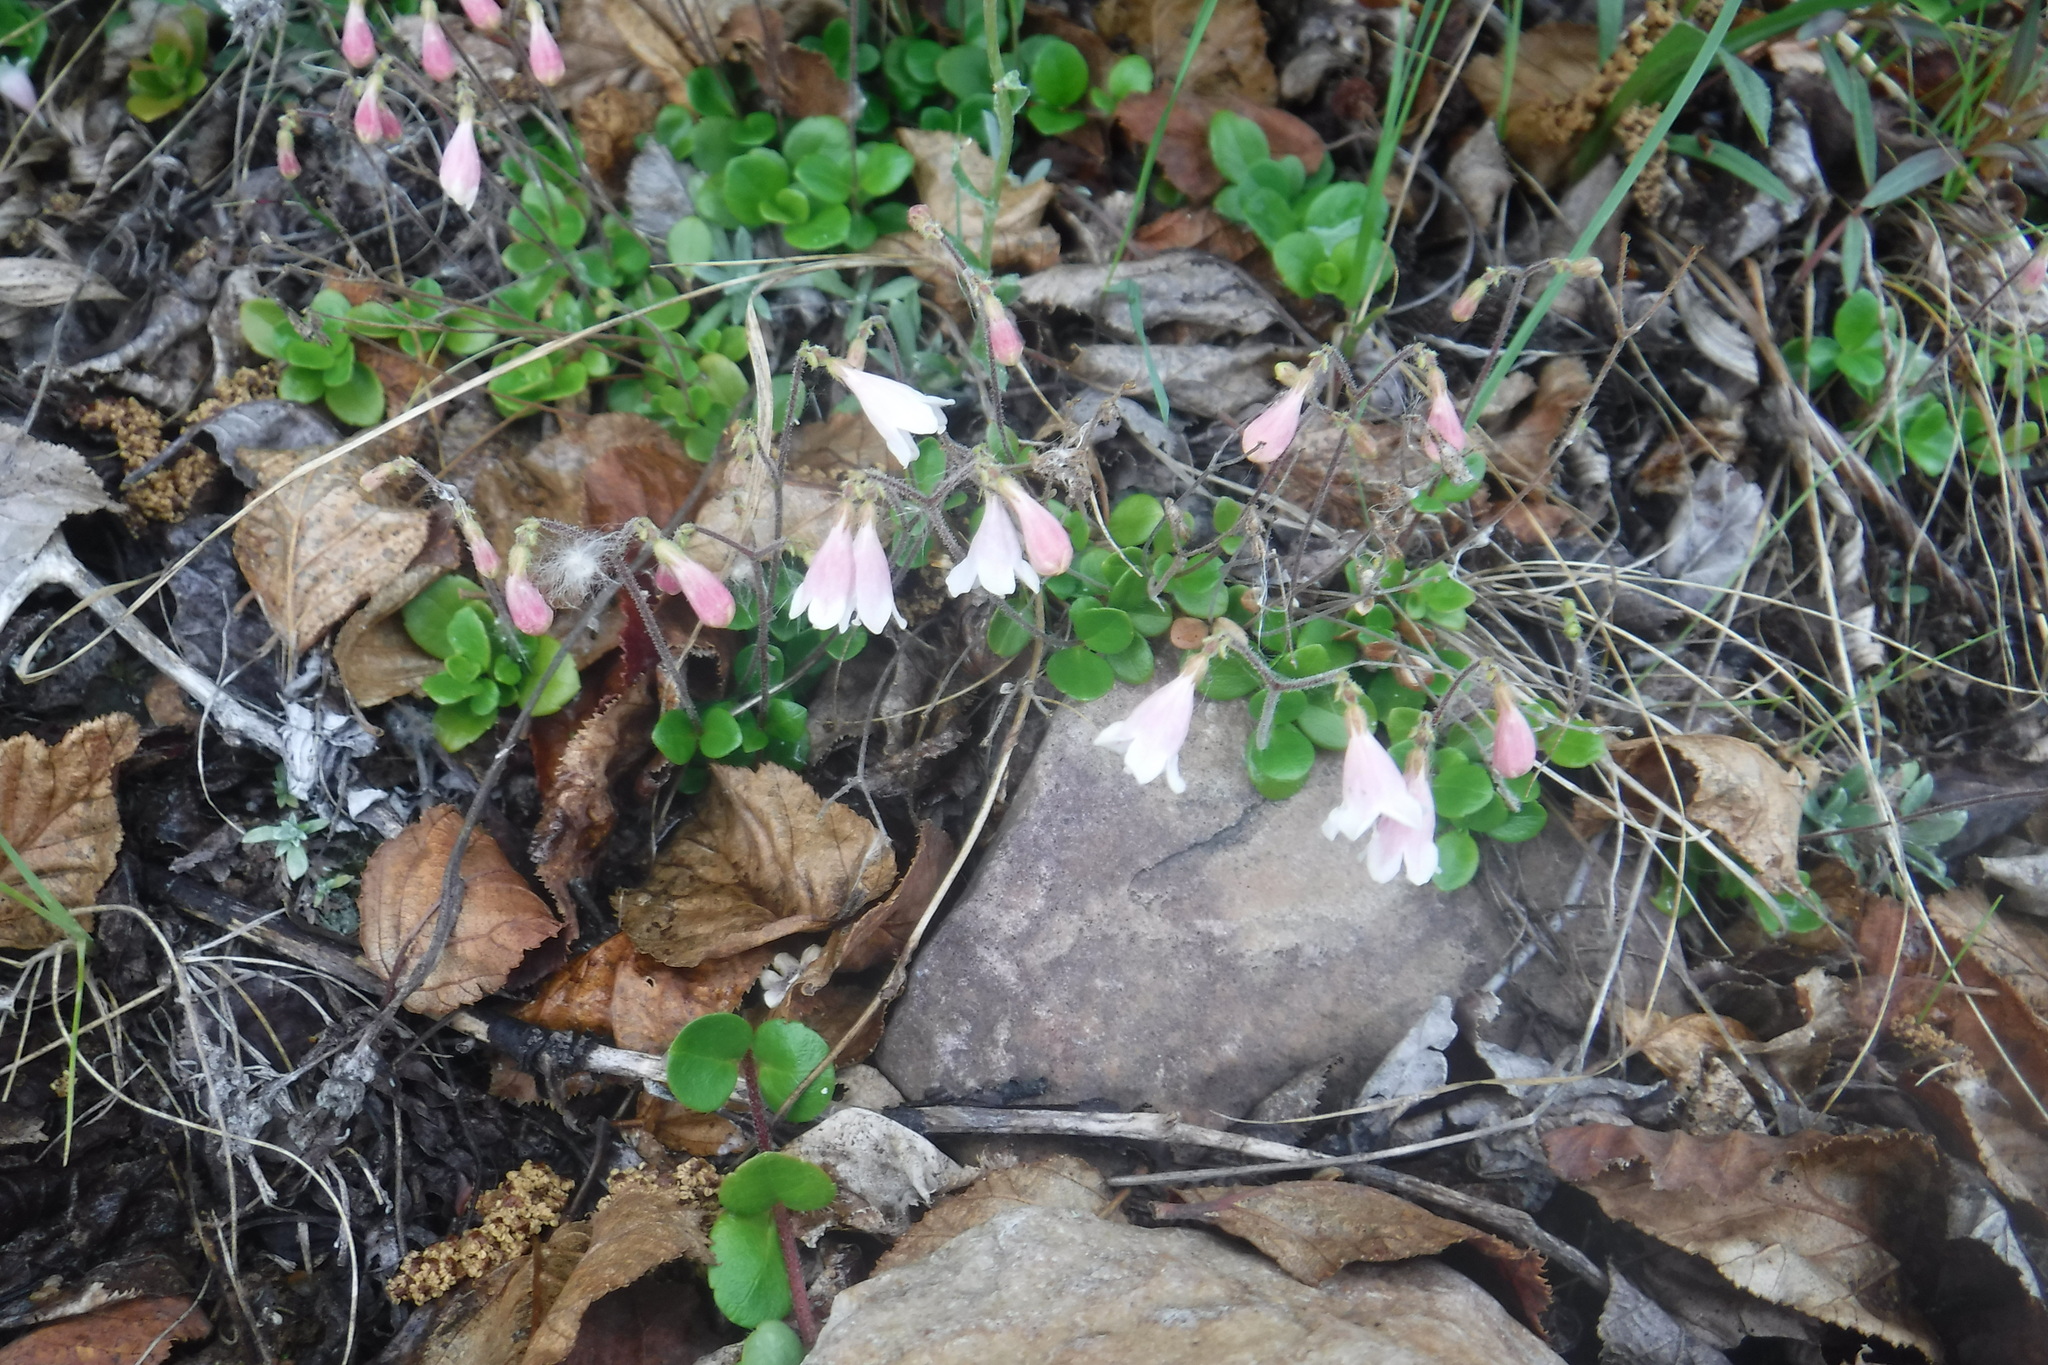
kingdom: Plantae
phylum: Tracheophyta
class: Magnoliopsida
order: Dipsacales
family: Caprifoliaceae
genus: Linnaea
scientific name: Linnaea borealis
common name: Twinflower
